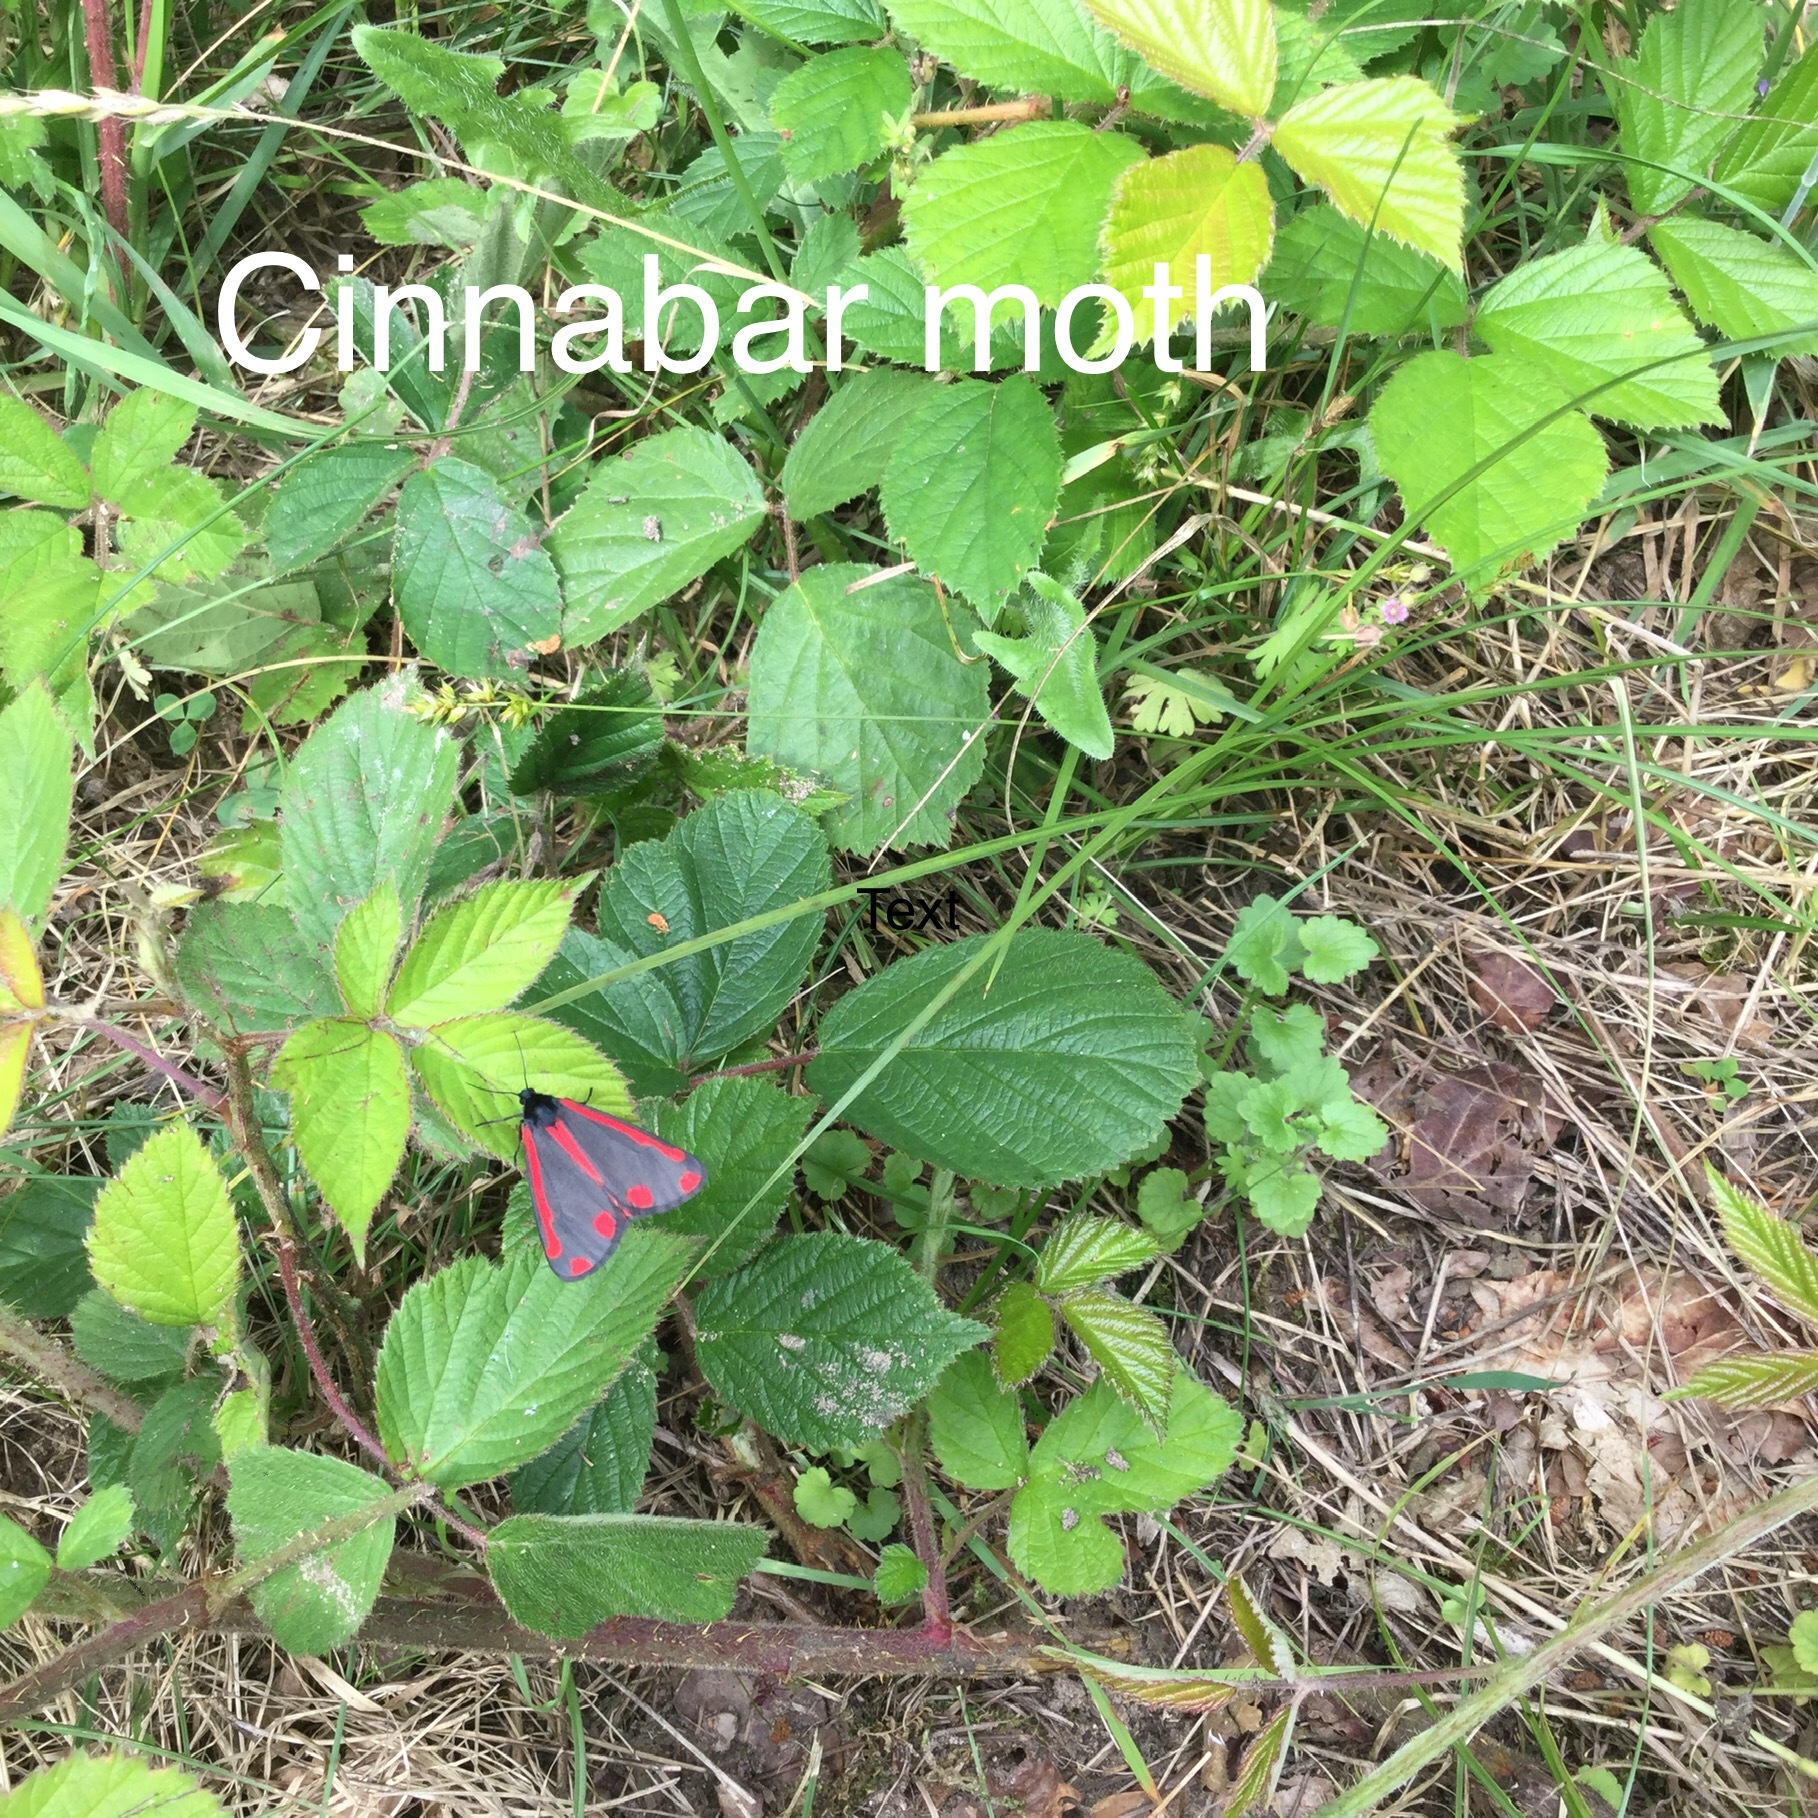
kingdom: Animalia
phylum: Arthropoda
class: Insecta
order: Lepidoptera
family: Erebidae
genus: Tyria
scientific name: Tyria jacobaeae
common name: Cinnabar
